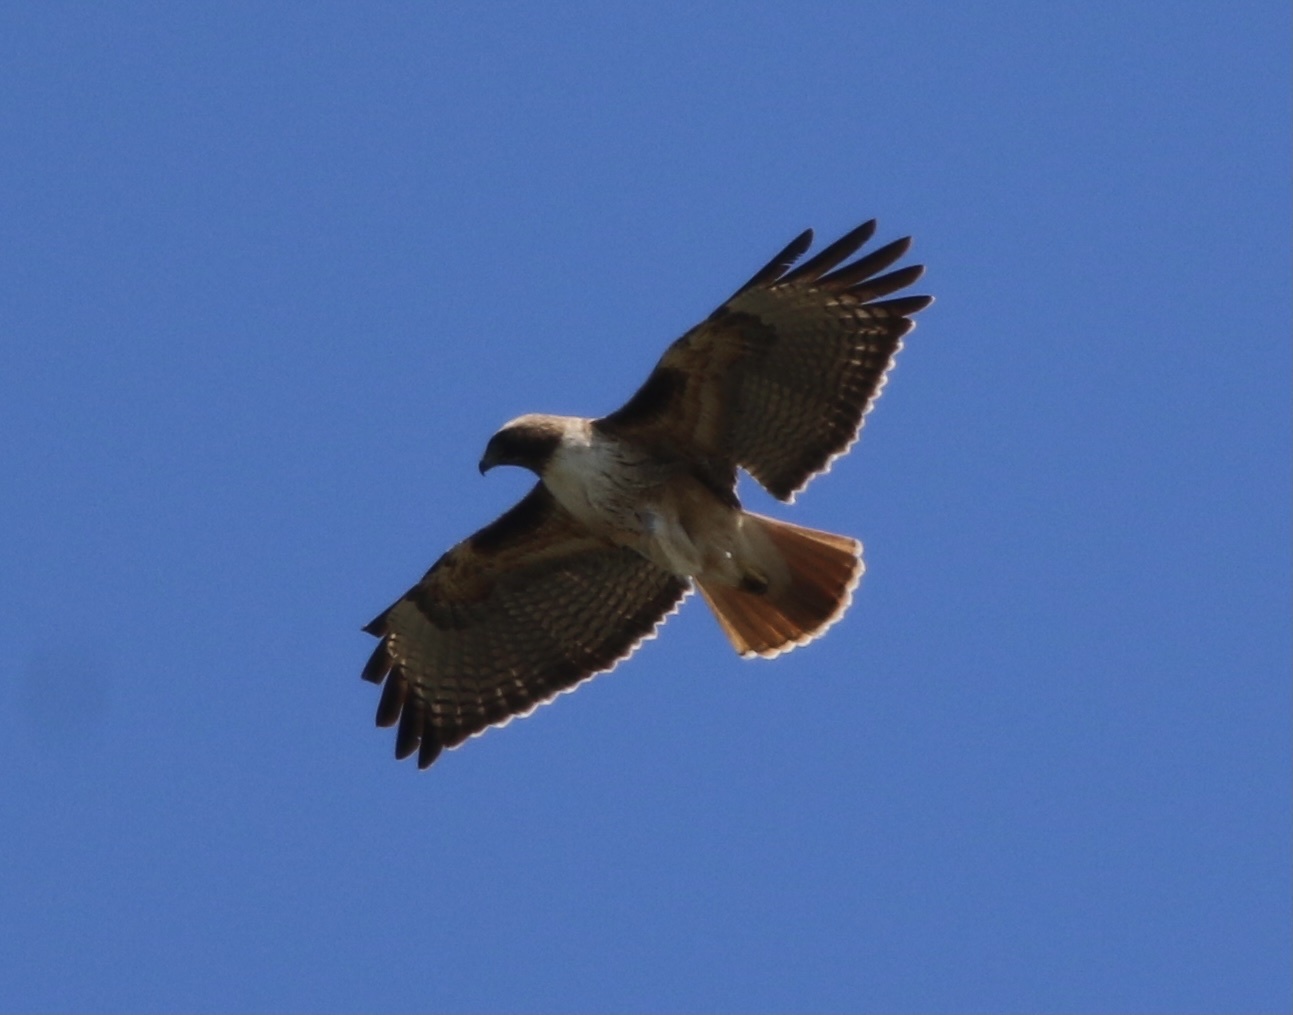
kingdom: Animalia
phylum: Chordata
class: Aves
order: Accipitriformes
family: Accipitridae
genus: Buteo
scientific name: Buteo jamaicensis
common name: Red-tailed hawk
